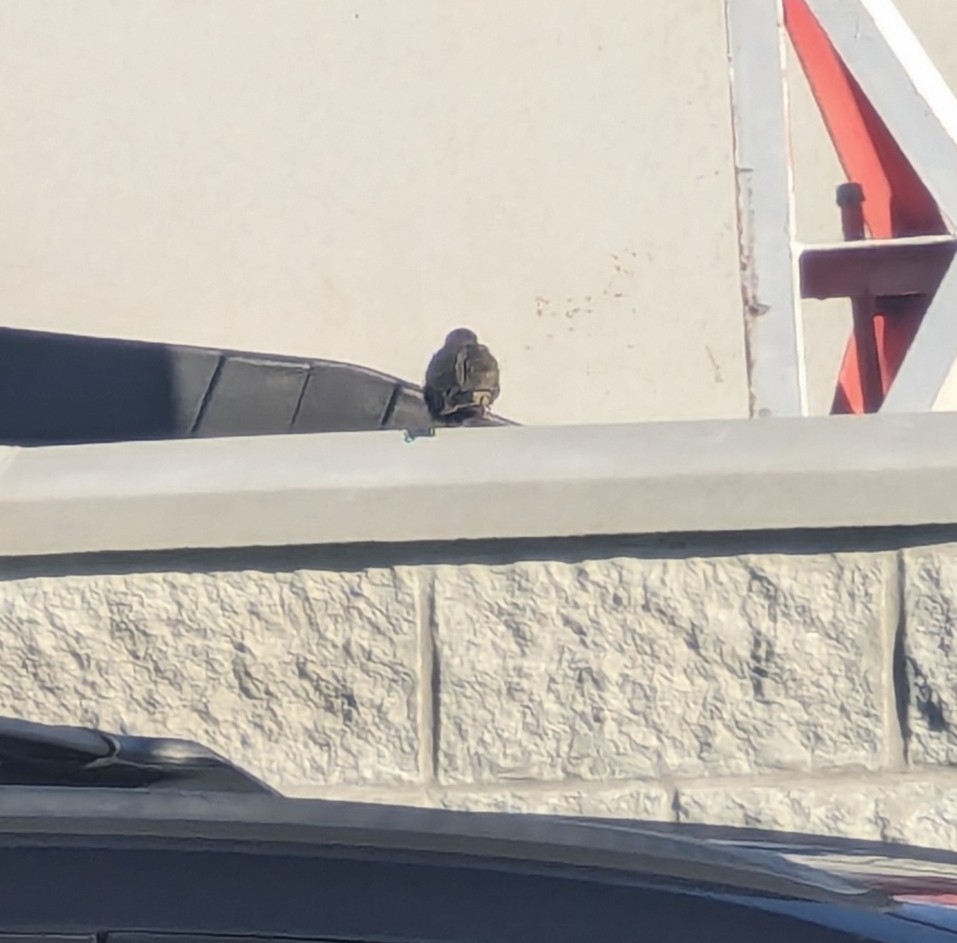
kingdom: Animalia
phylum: Chordata
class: Aves
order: Passeriformes
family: Sturnidae
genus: Sturnus
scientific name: Sturnus vulgaris
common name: Common starling
